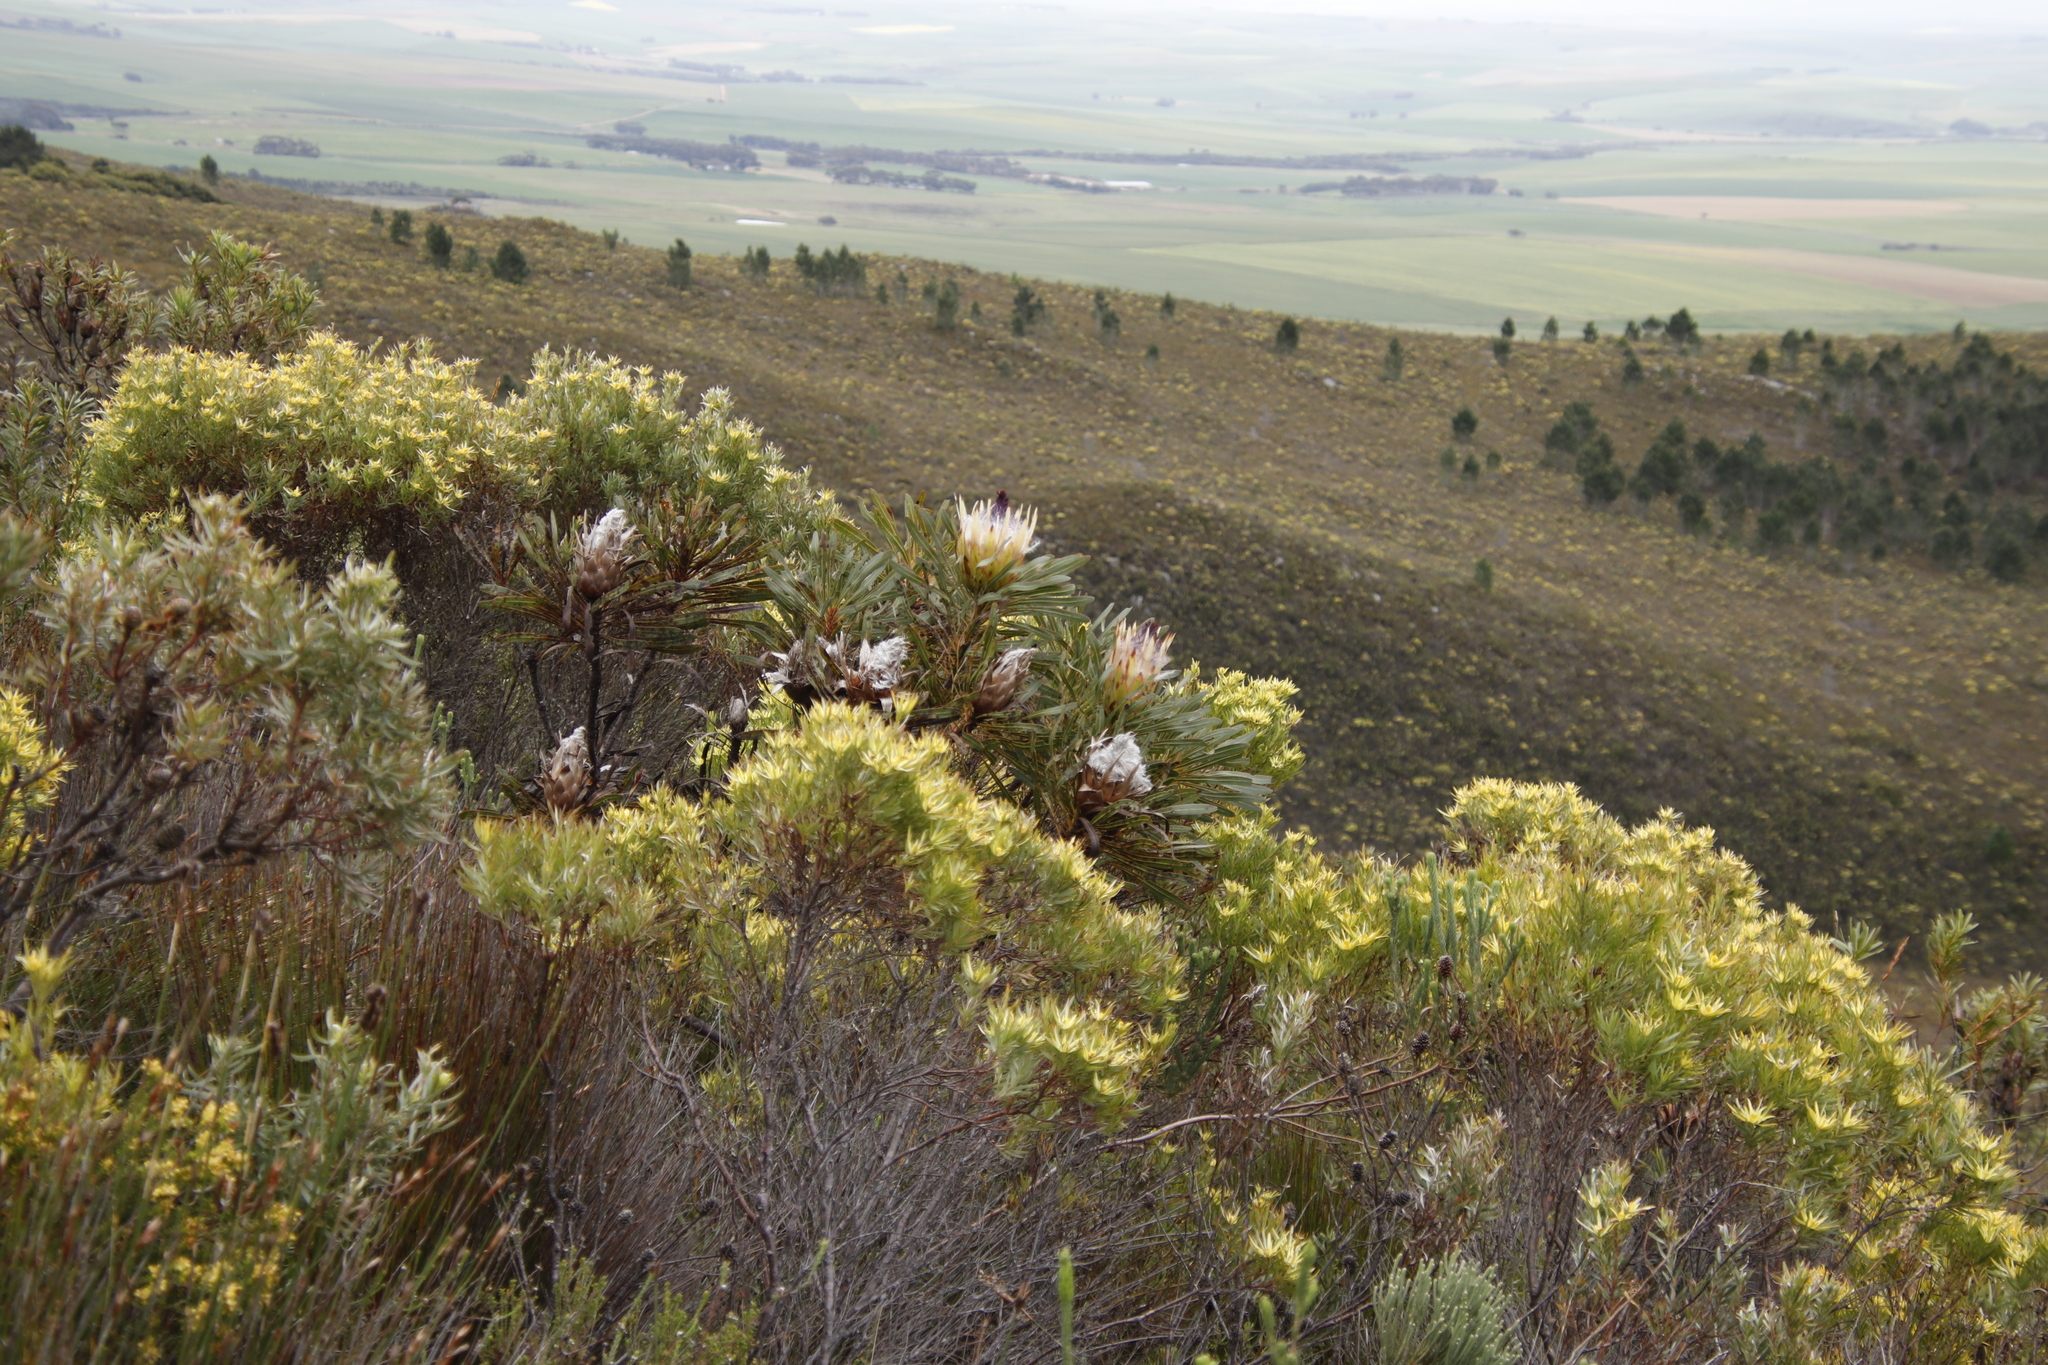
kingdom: Plantae
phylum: Tracheophyta
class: Pinopsida
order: Pinales
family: Pinaceae
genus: Pinus
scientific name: Pinus pinaster
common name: Maritime pine
